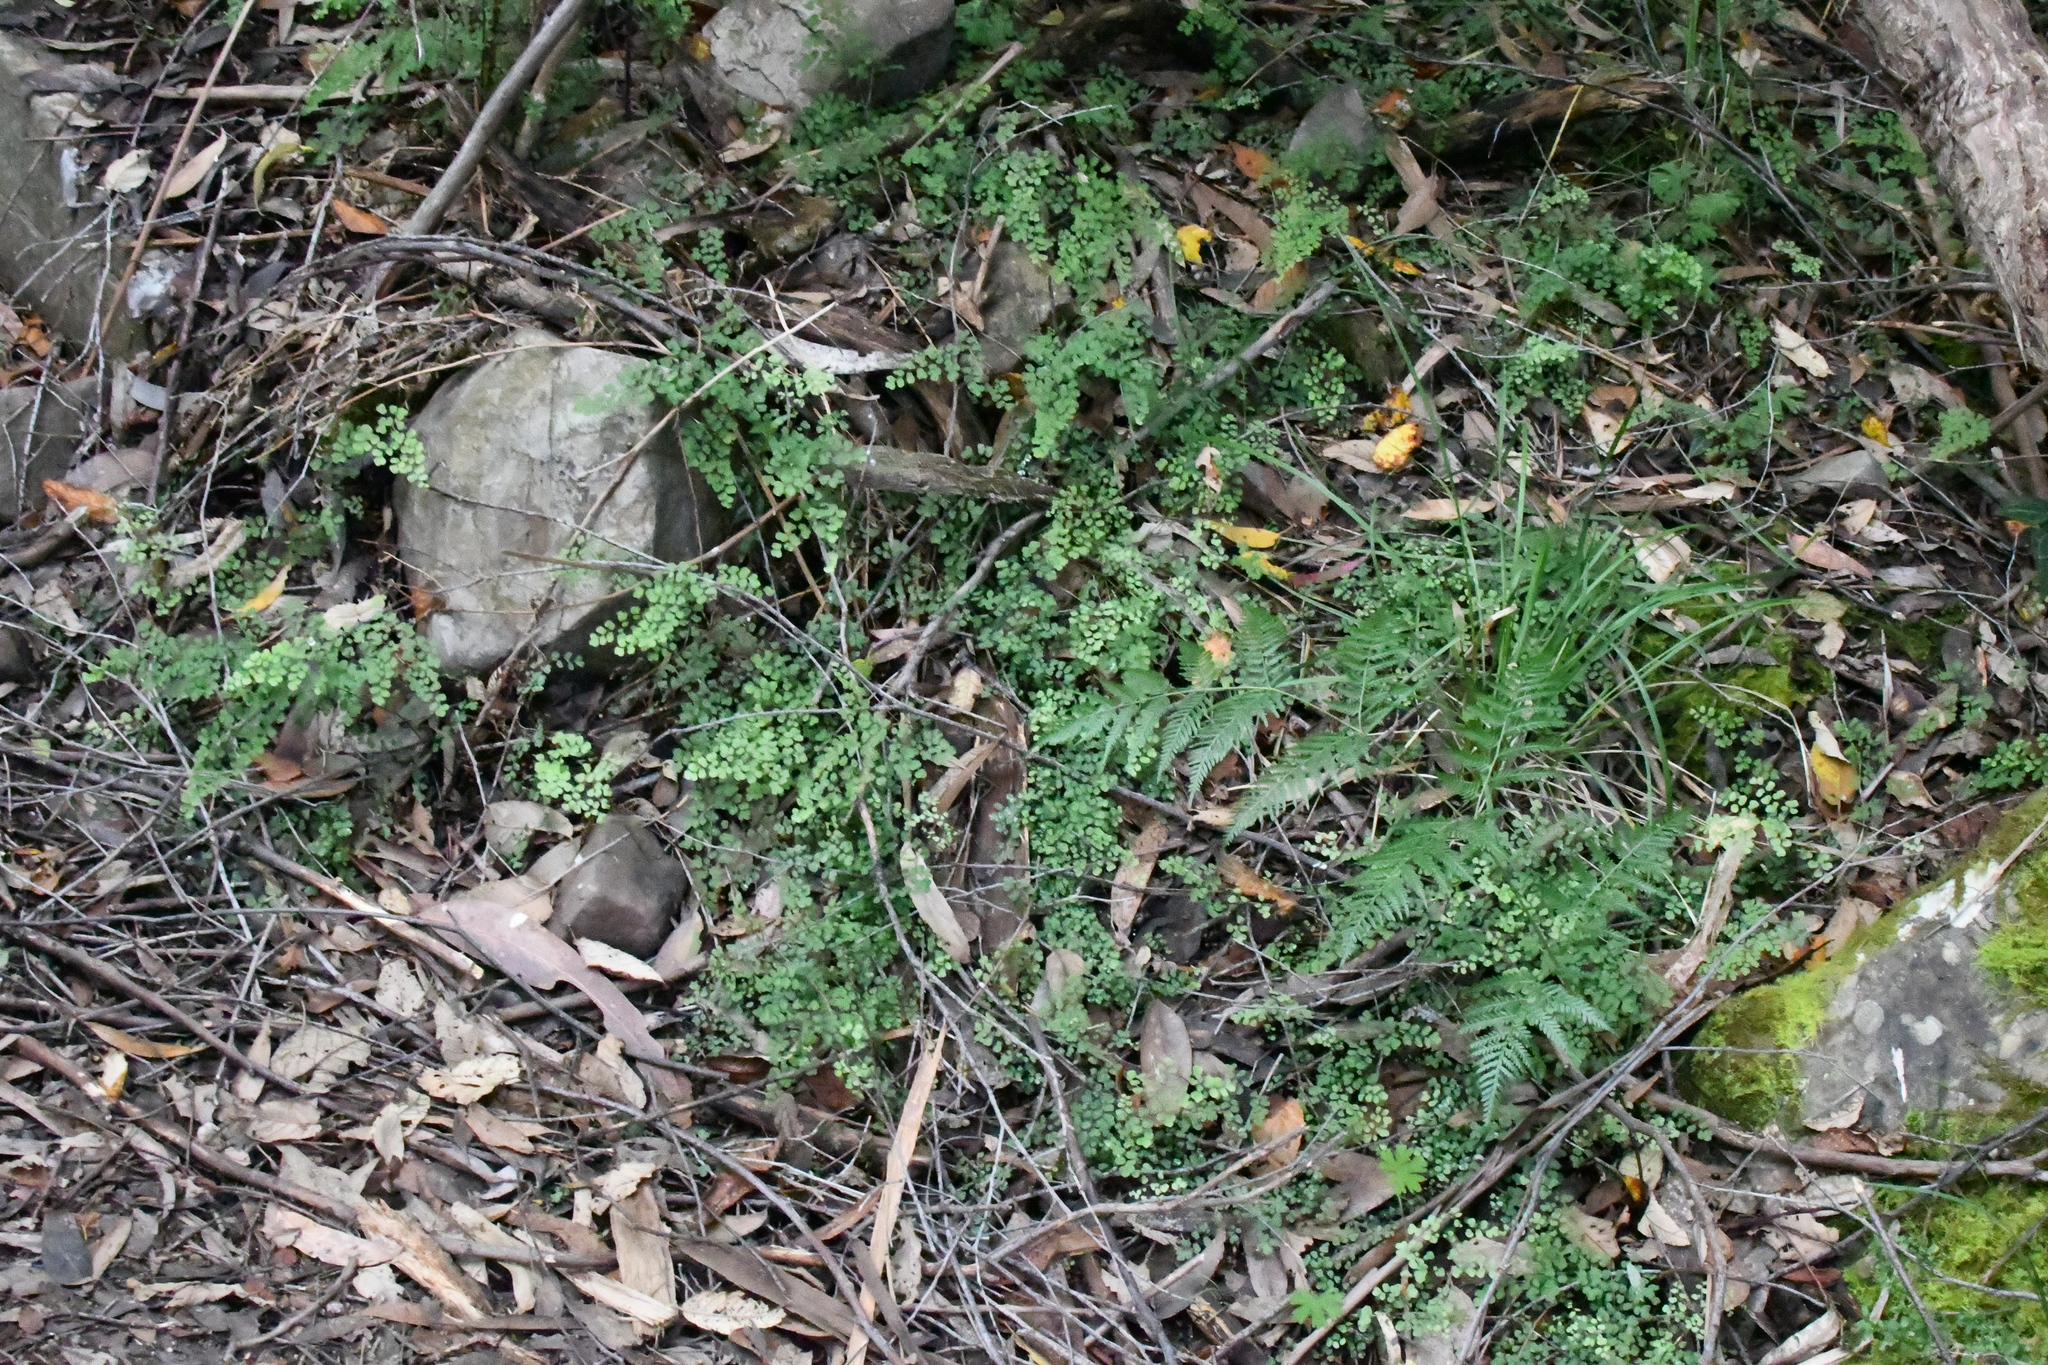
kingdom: Plantae
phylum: Tracheophyta
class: Polypodiopsida
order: Polypodiales
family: Pteridaceae
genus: Adiantum
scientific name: Adiantum aethiopicum
